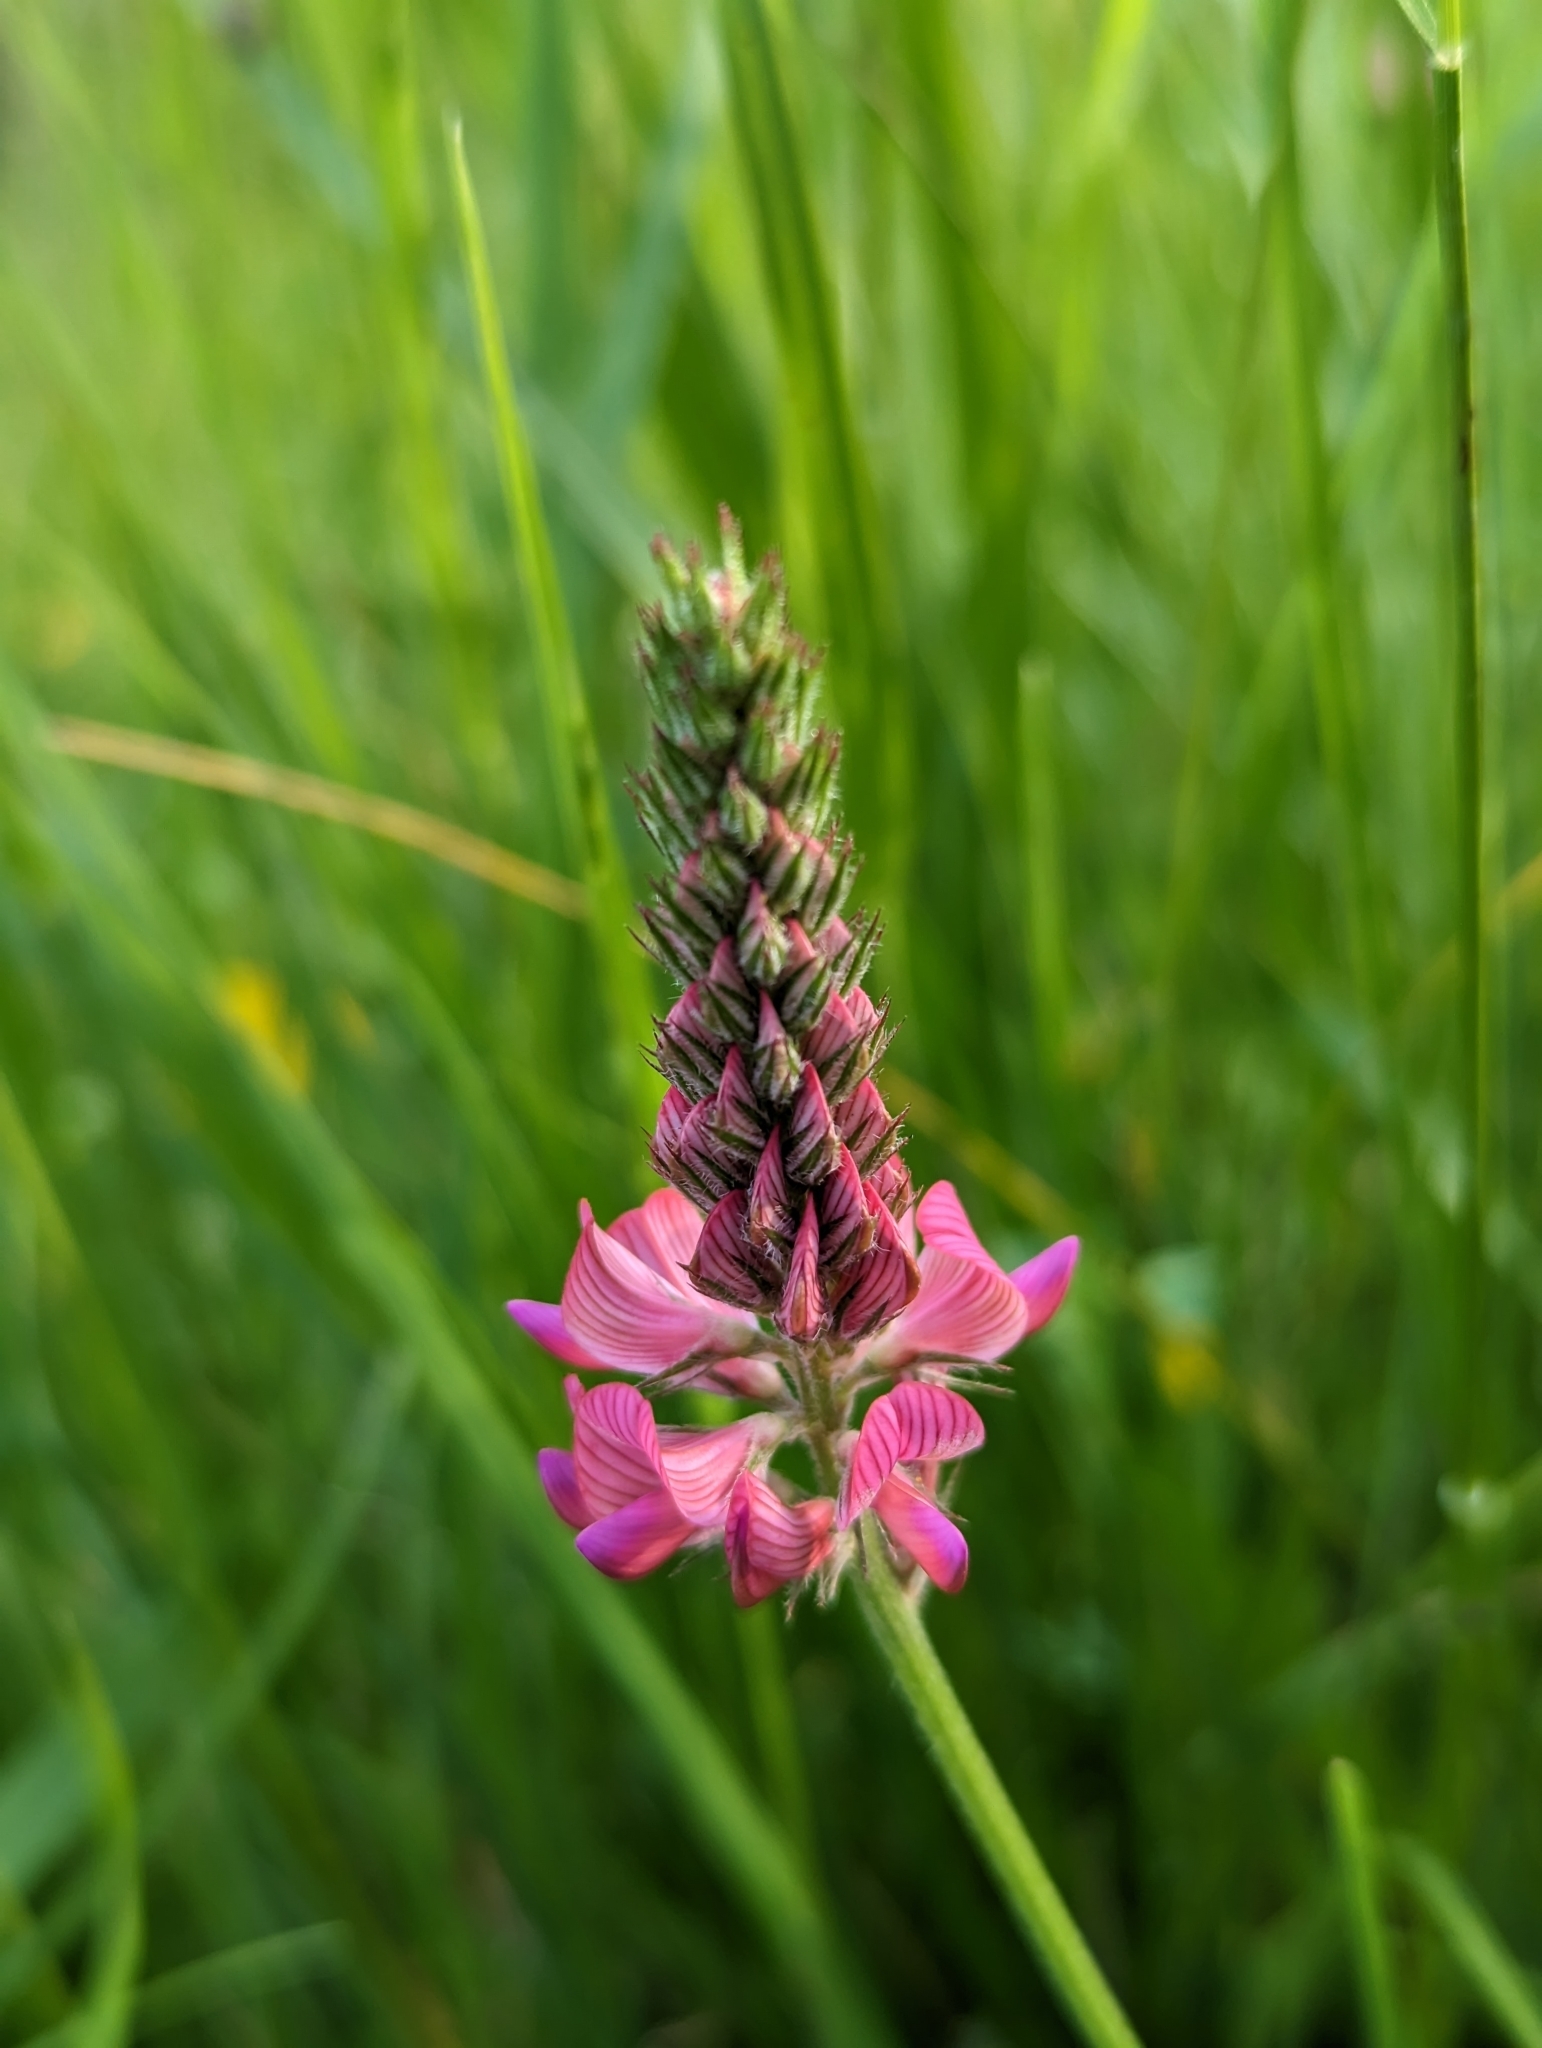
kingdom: Plantae
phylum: Tracheophyta
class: Magnoliopsida
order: Fabales
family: Fabaceae
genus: Onobrychis
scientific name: Onobrychis viciifolia
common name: Sainfoin
